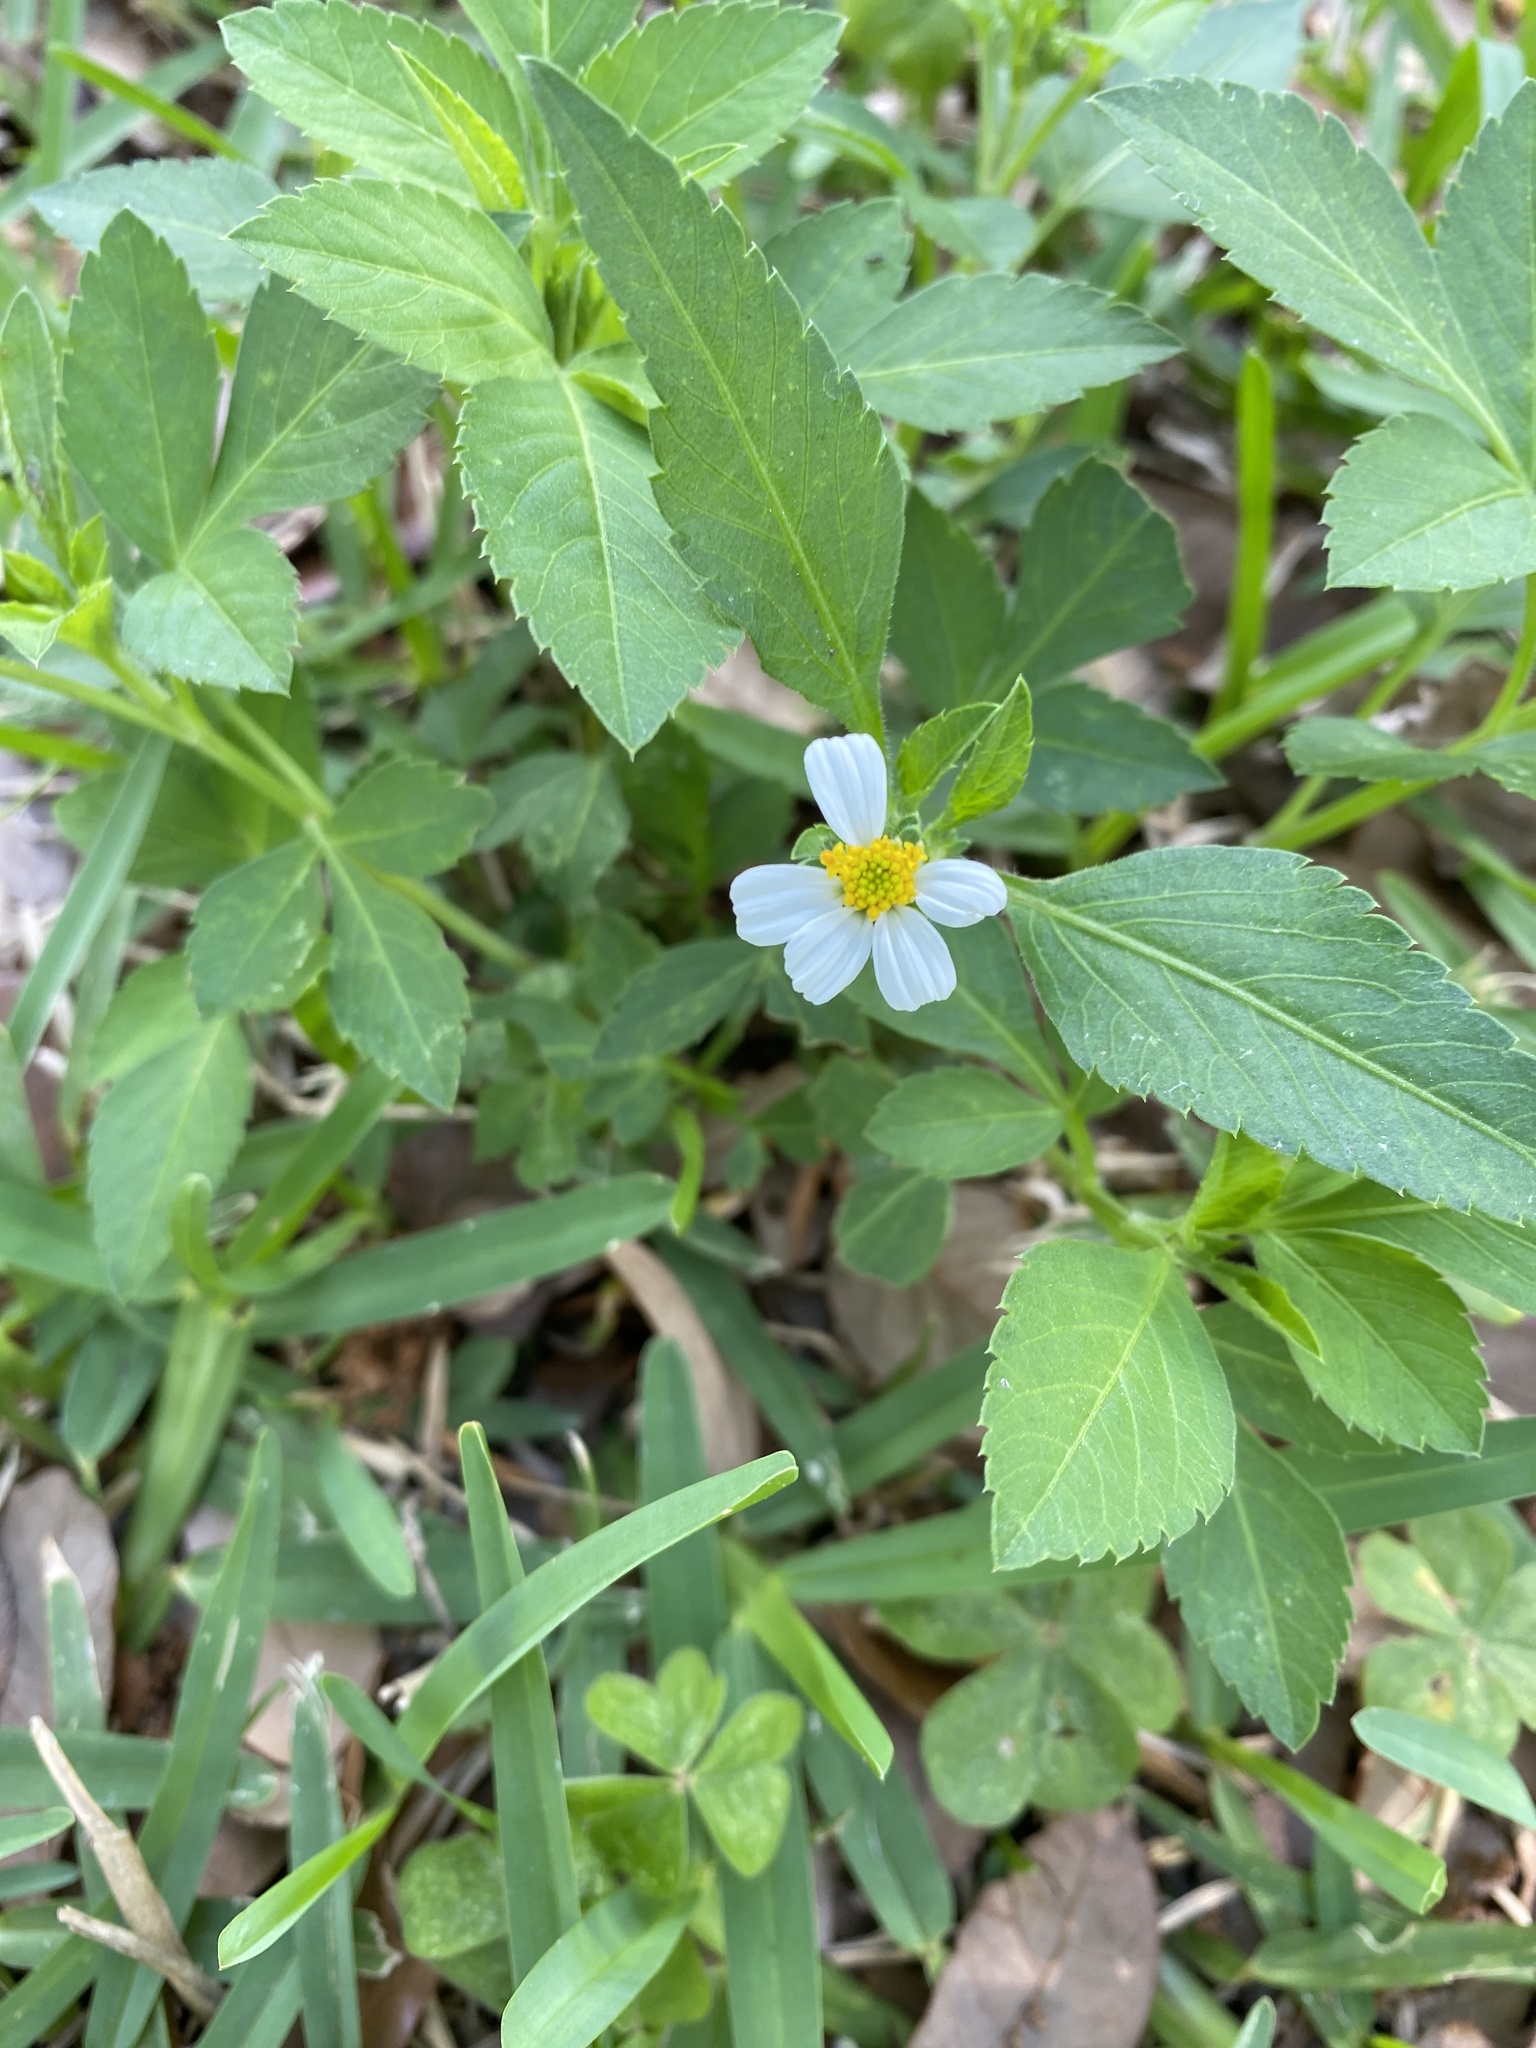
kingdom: Plantae
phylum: Tracheophyta
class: Magnoliopsida
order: Asterales
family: Asteraceae
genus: Bidens
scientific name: Bidens alba
